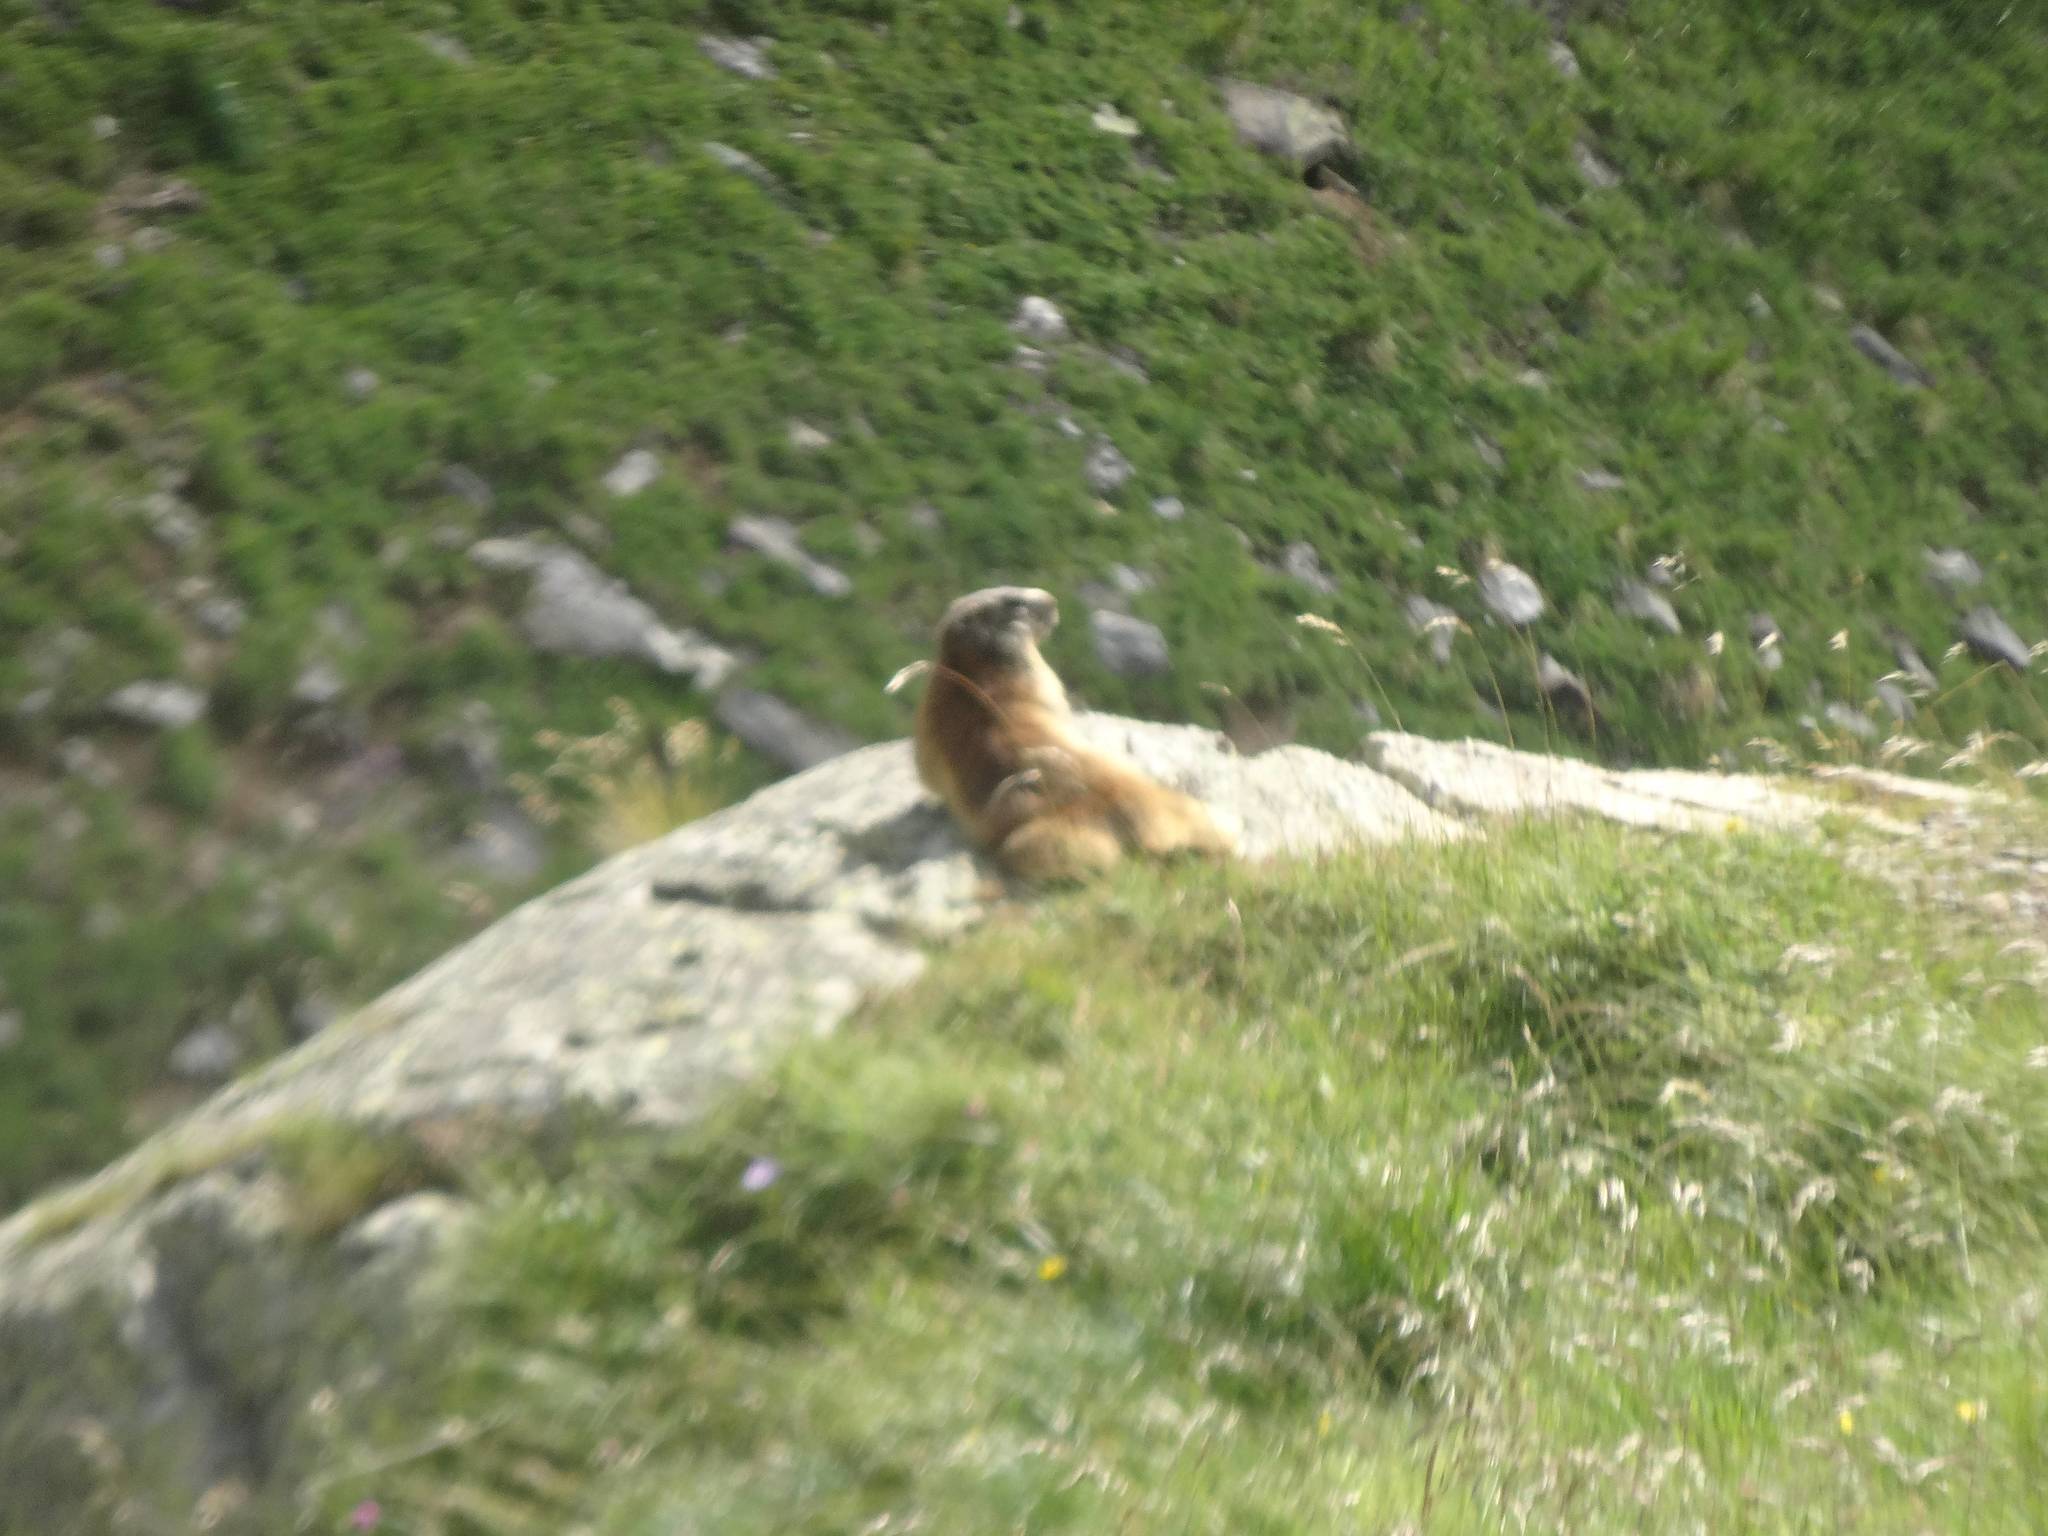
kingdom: Animalia
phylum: Chordata
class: Mammalia
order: Rodentia
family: Sciuridae
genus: Marmota
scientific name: Marmota marmota
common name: Alpine marmot
